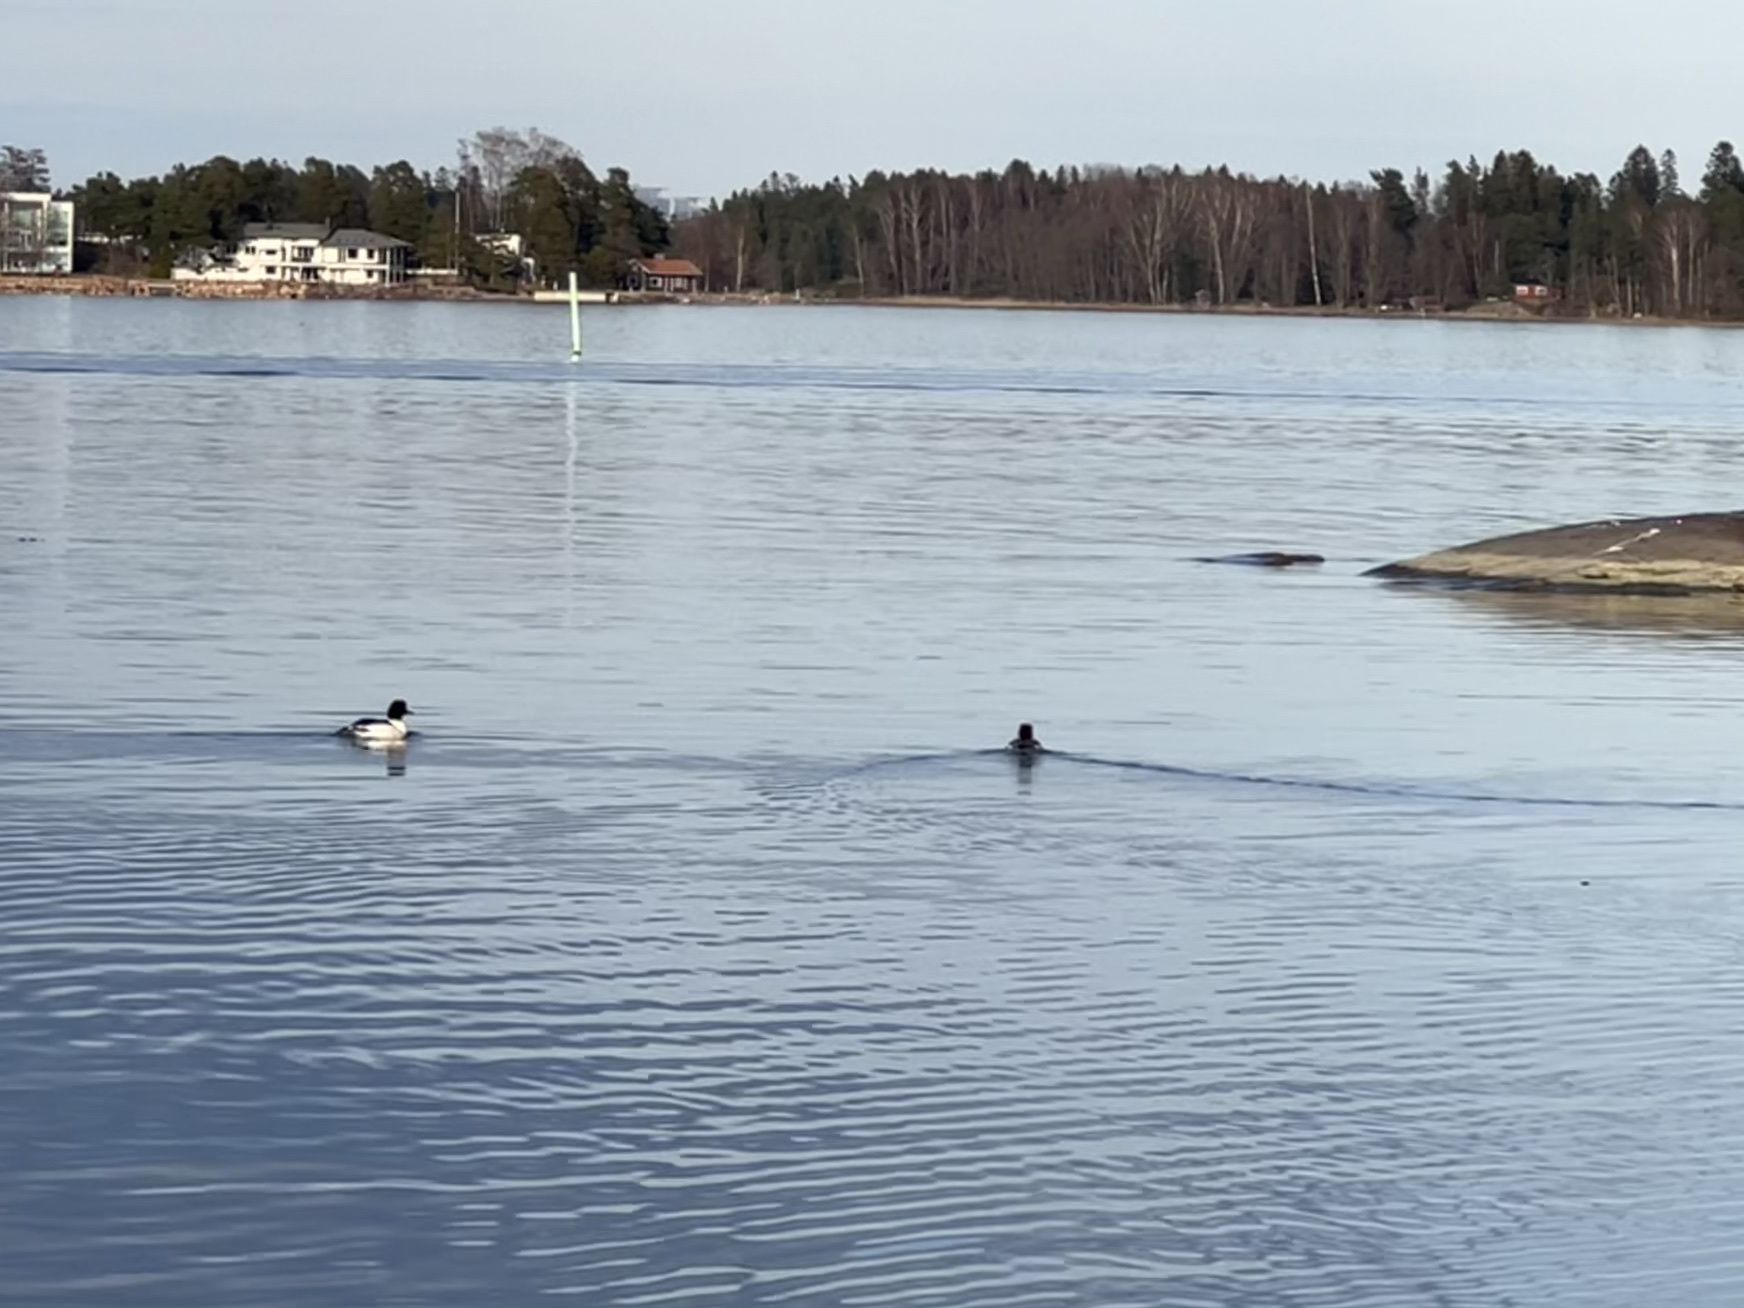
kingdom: Animalia
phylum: Chordata
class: Aves
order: Anseriformes
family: Anatidae
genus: Mergus
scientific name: Mergus merganser
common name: Common merganser
